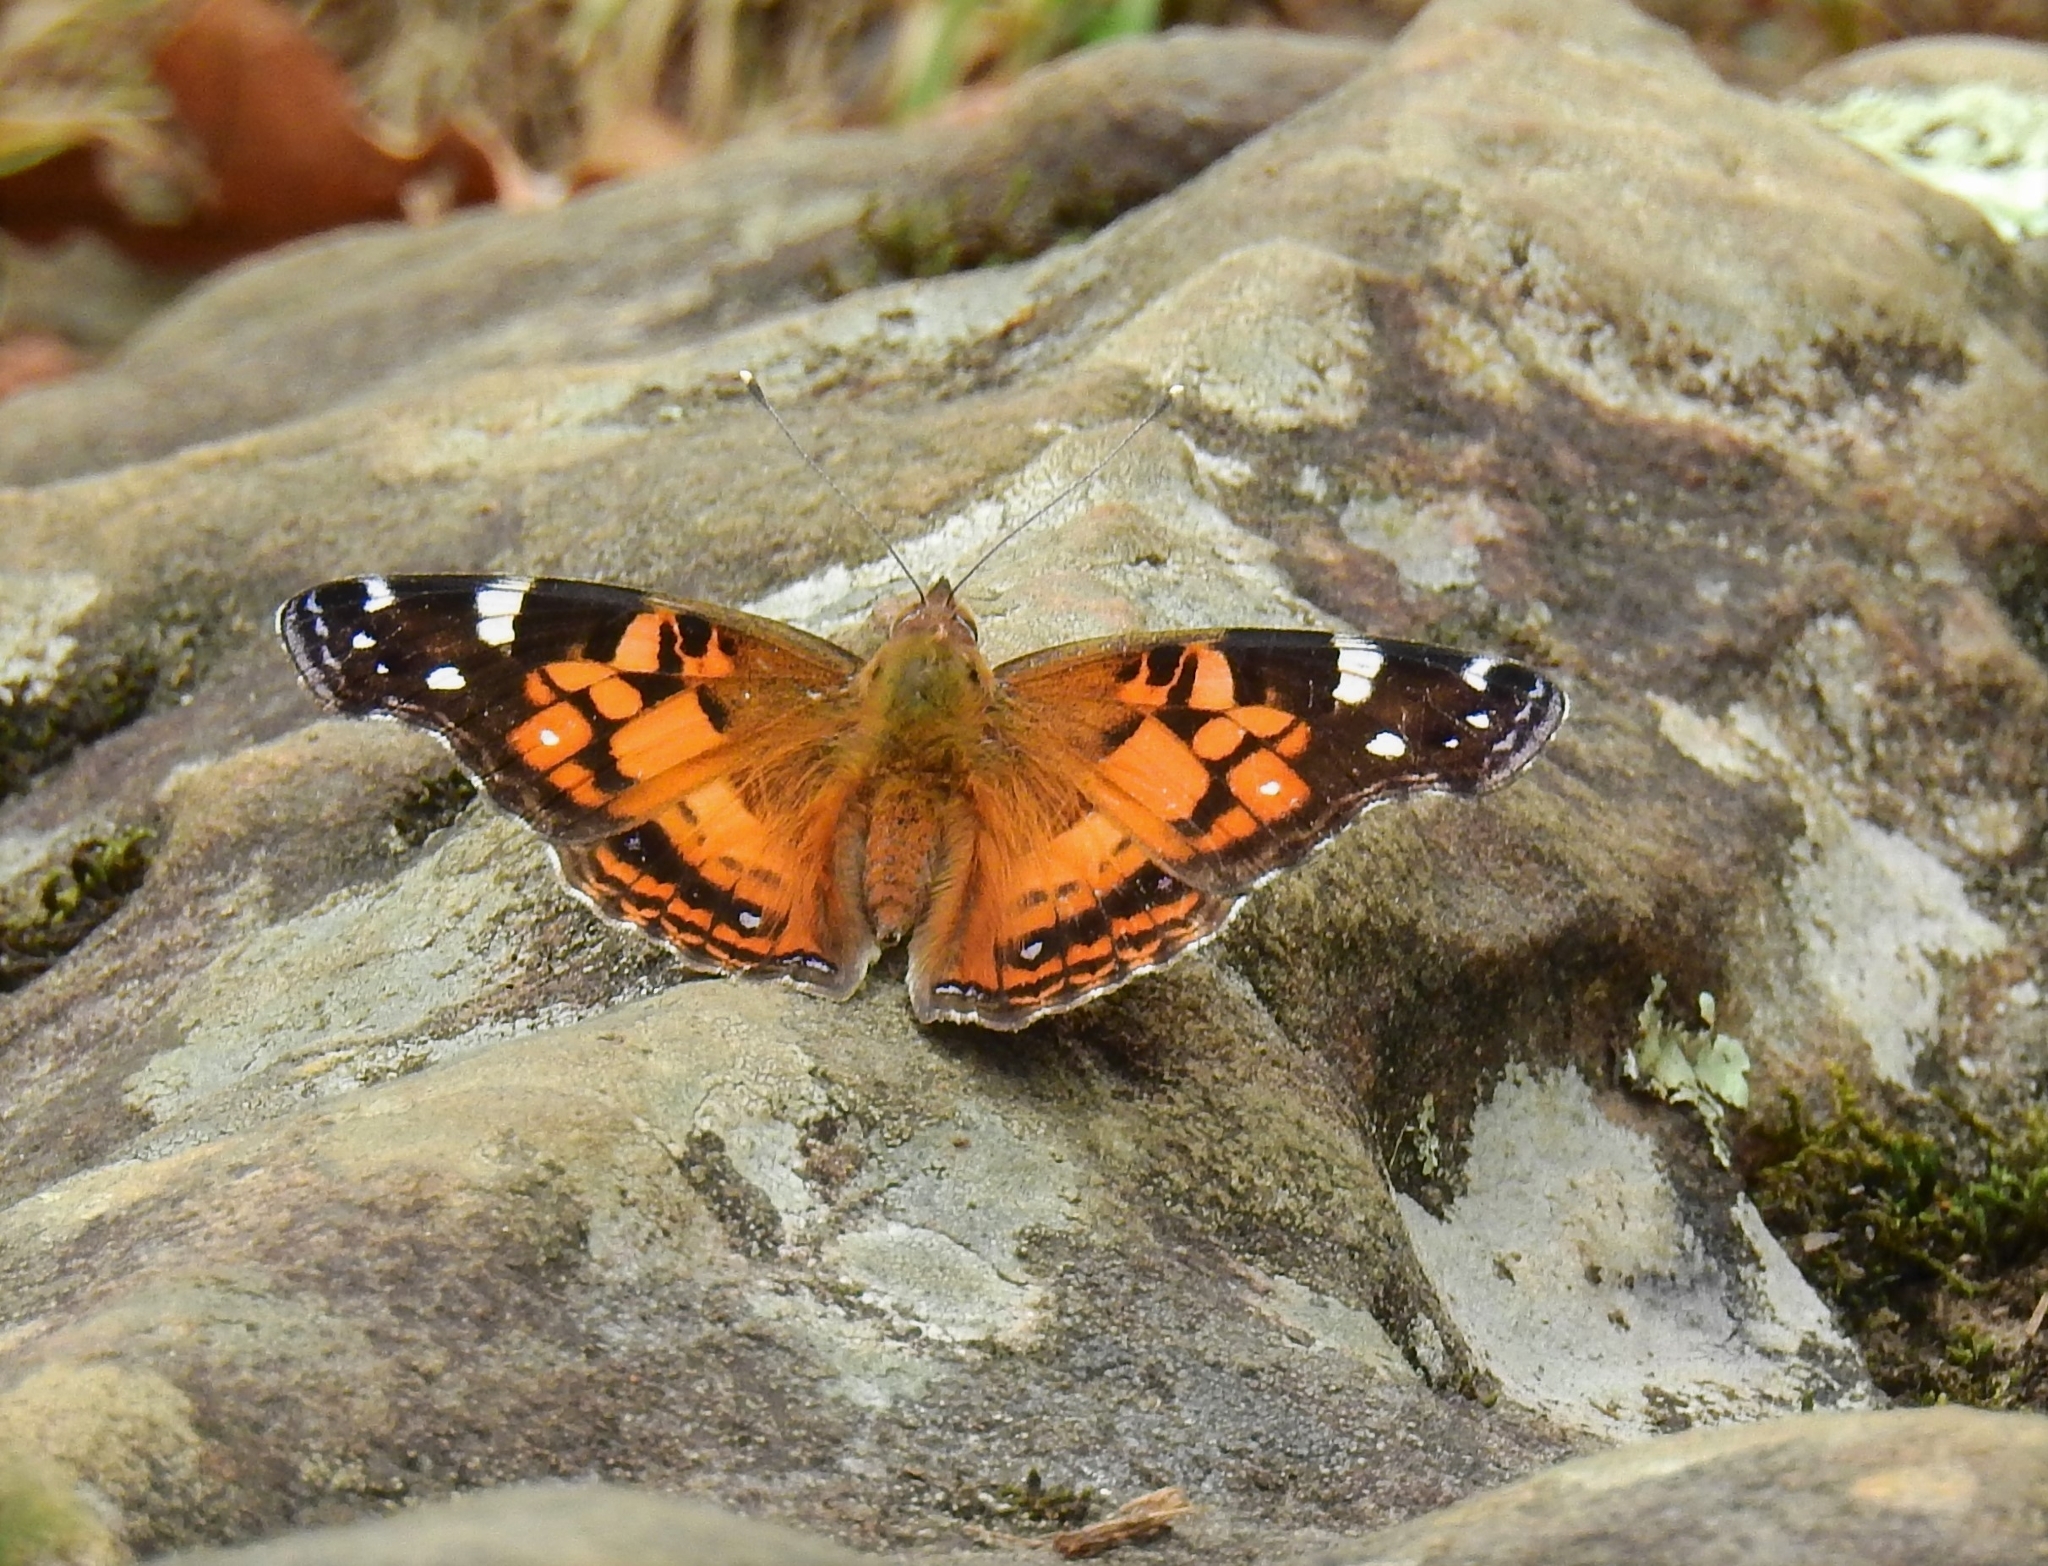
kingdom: Animalia
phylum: Arthropoda
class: Insecta
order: Lepidoptera
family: Nymphalidae
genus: Vanessa
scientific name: Vanessa virginiensis
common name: American lady
